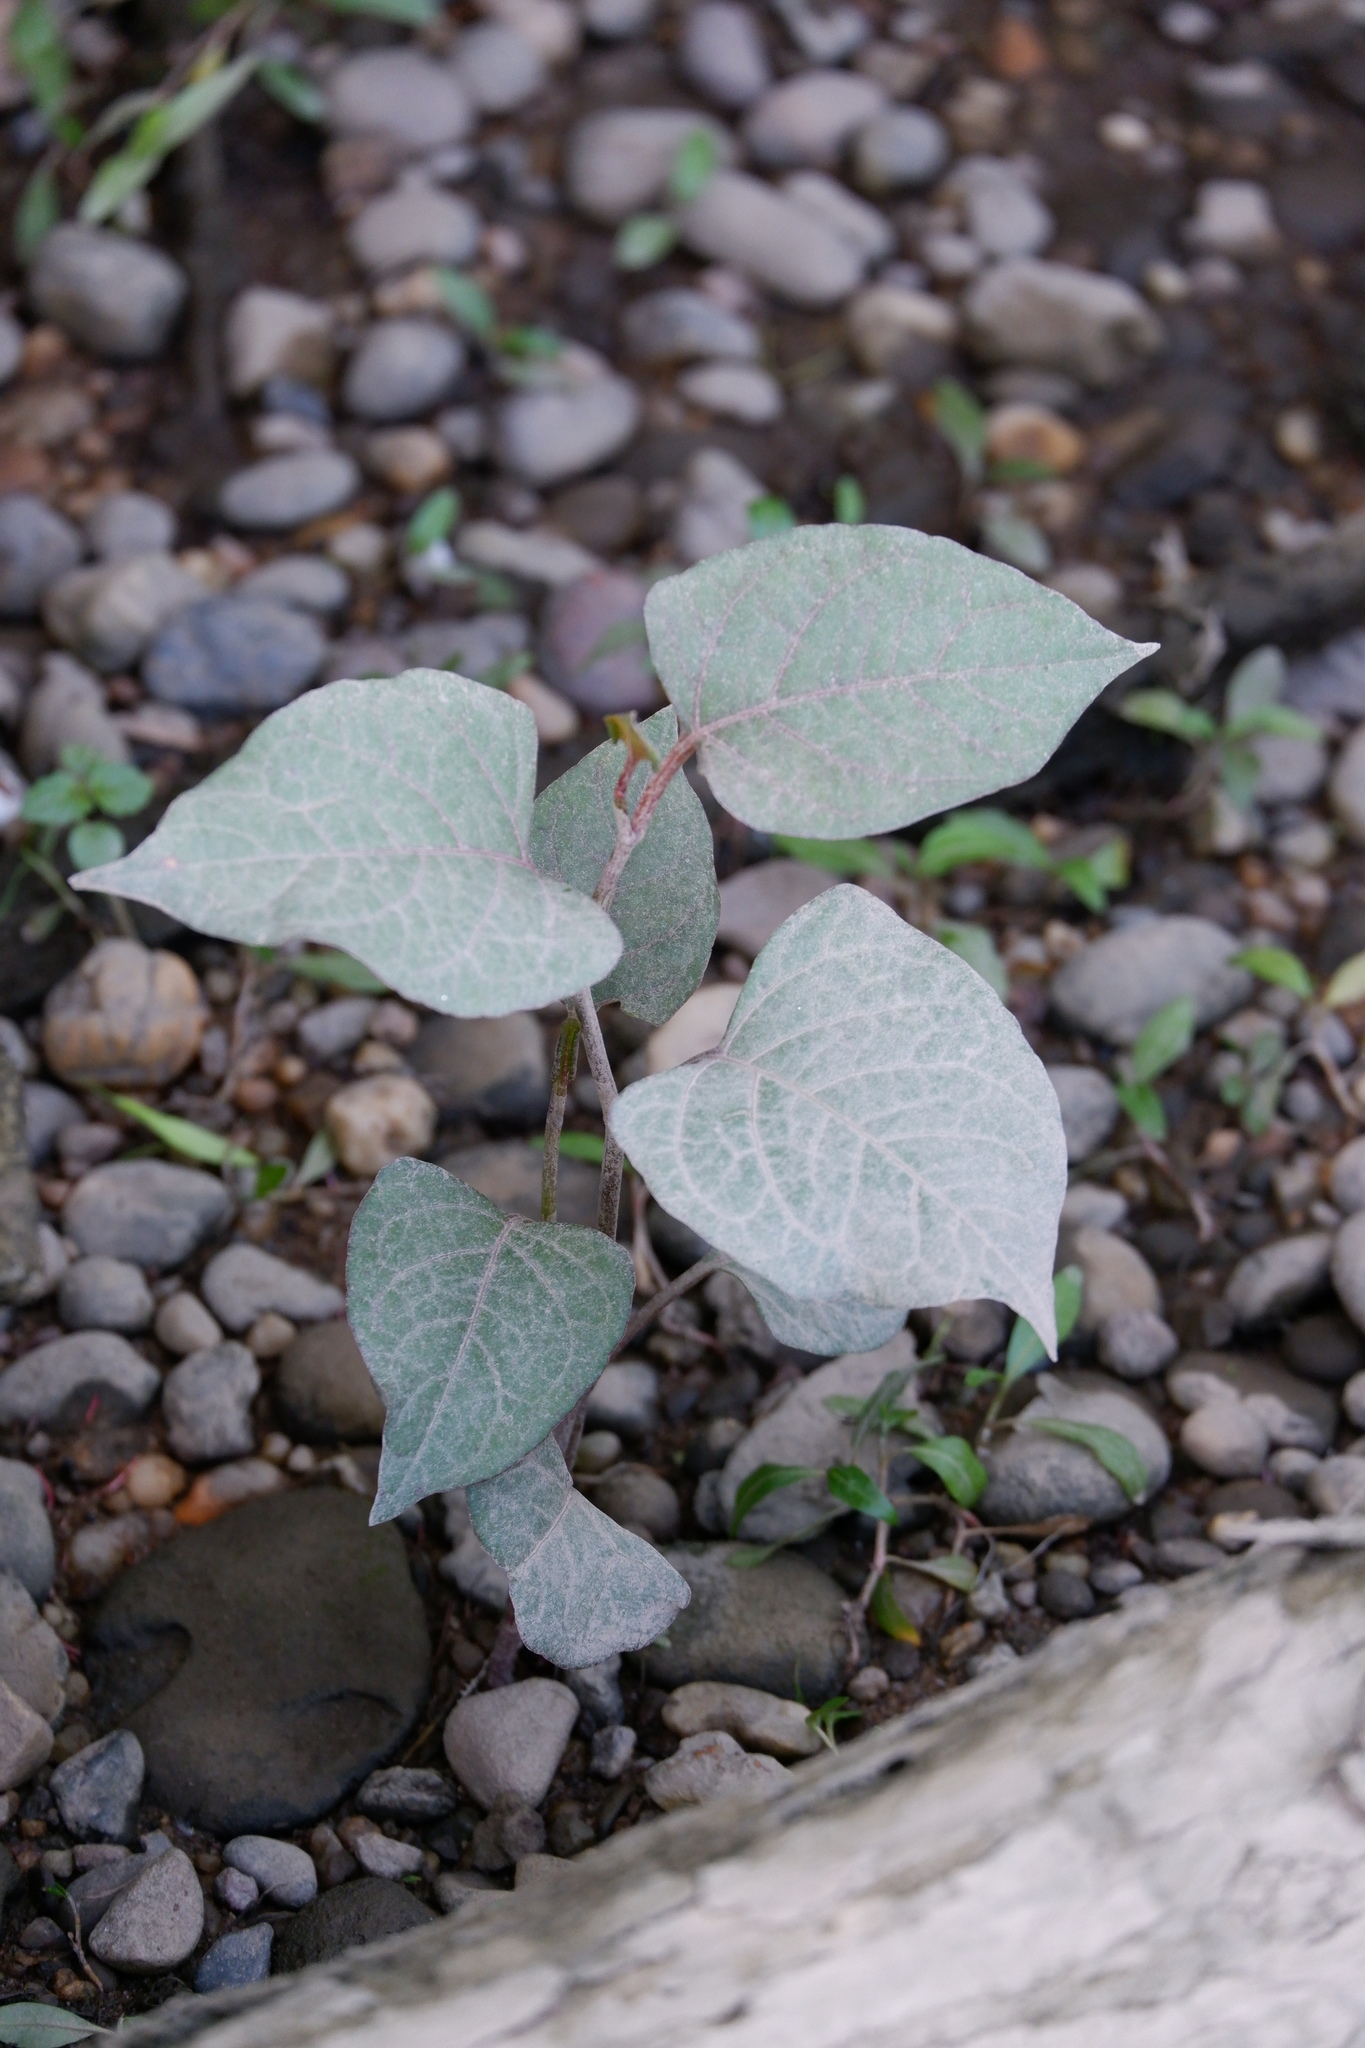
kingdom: Plantae
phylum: Tracheophyta
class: Magnoliopsida
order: Caryophyllales
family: Polygonaceae
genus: Reynoutria
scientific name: Reynoutria japonica
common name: Japanese knotweed
